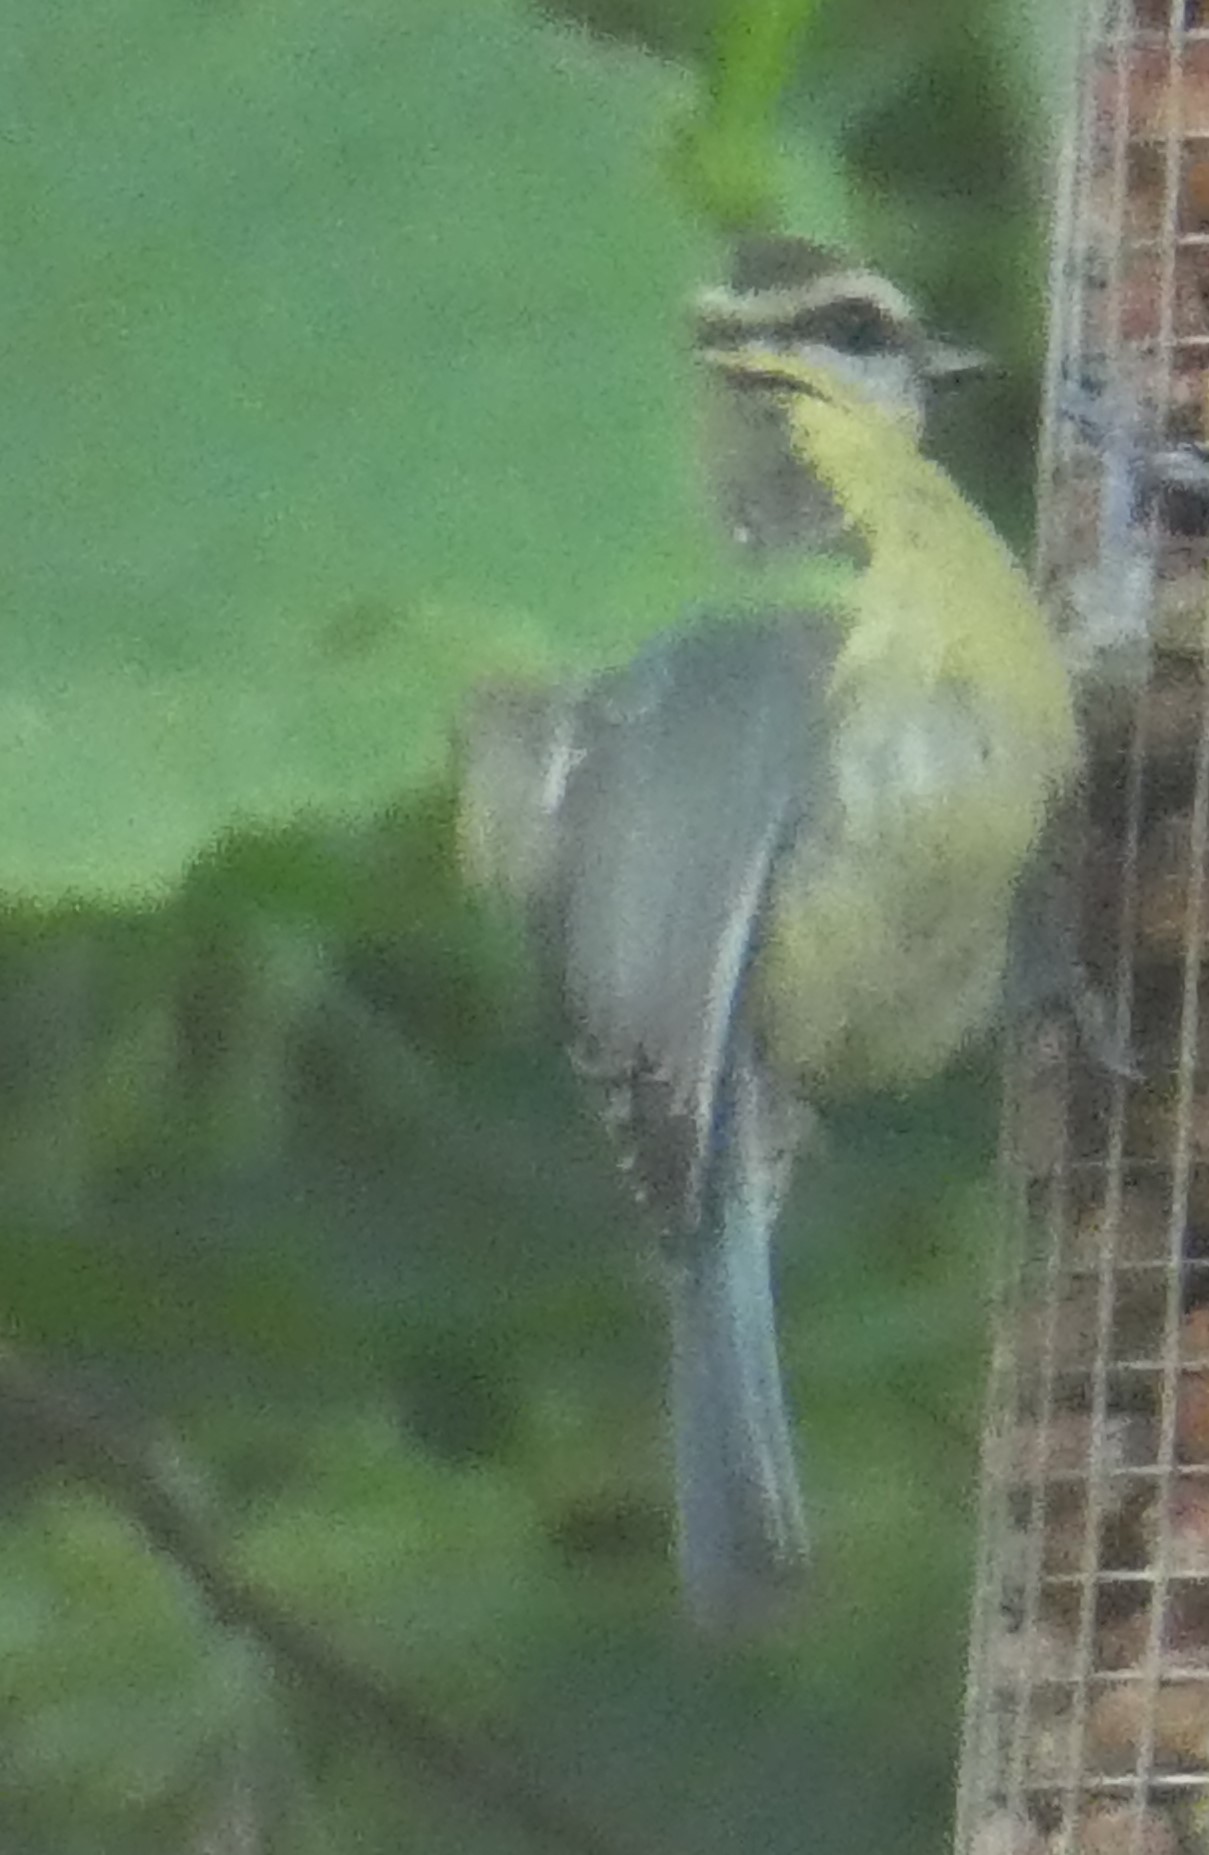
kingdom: Animalia
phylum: Chordata
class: Aves
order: Passeriformes
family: Paridae
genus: Cyanistes
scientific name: Cyanistes caeruleus
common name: Eurasian blue tit
